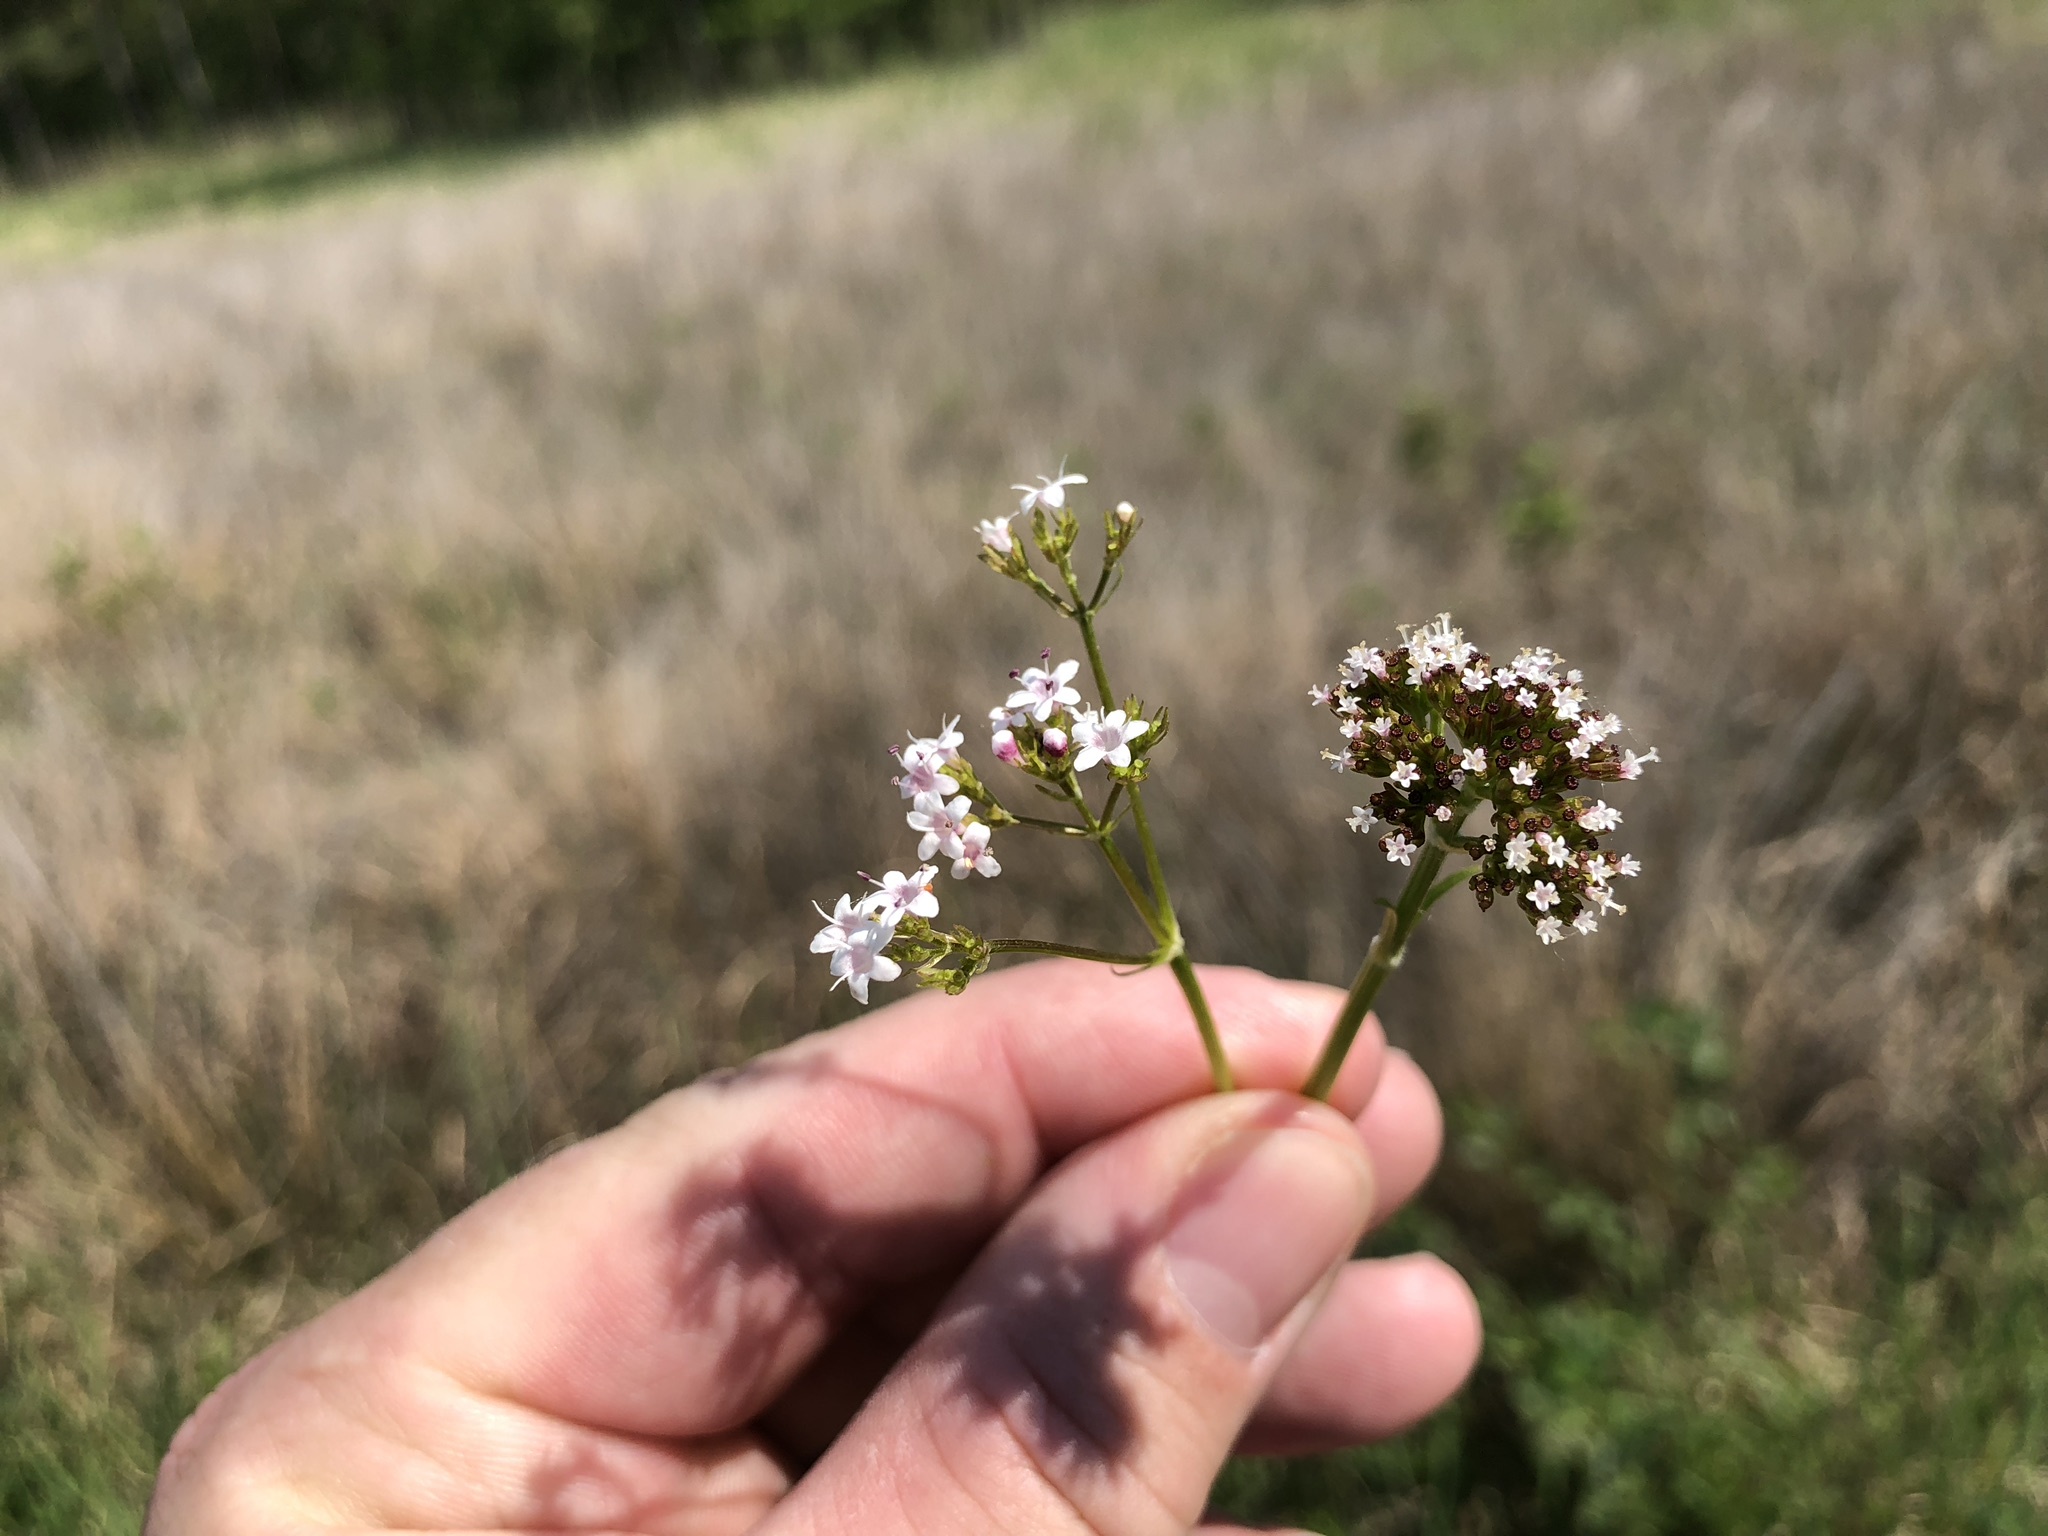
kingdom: Plantae
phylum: Tracheophyta
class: Magnoliopsida
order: Dipsacales
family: Caprifoliaceae
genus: Valeriana
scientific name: Valeriana dioica
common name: Marsh valerian
